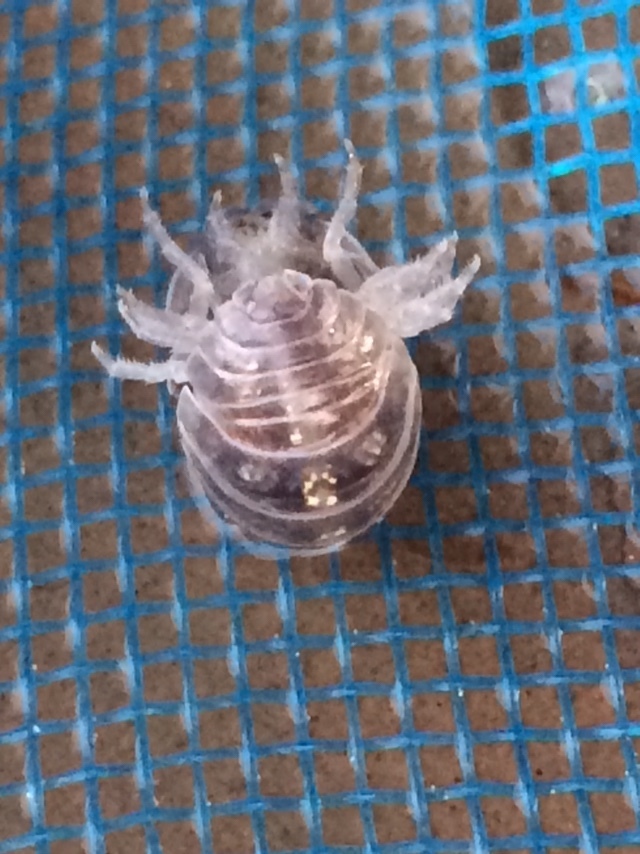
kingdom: Animalia
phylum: Arthropoda
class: Malacostraca
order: Isopoda
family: Armadillidiidae
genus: Armadillidium
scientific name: Armadillidium vulgare
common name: Common pill woodlouse
